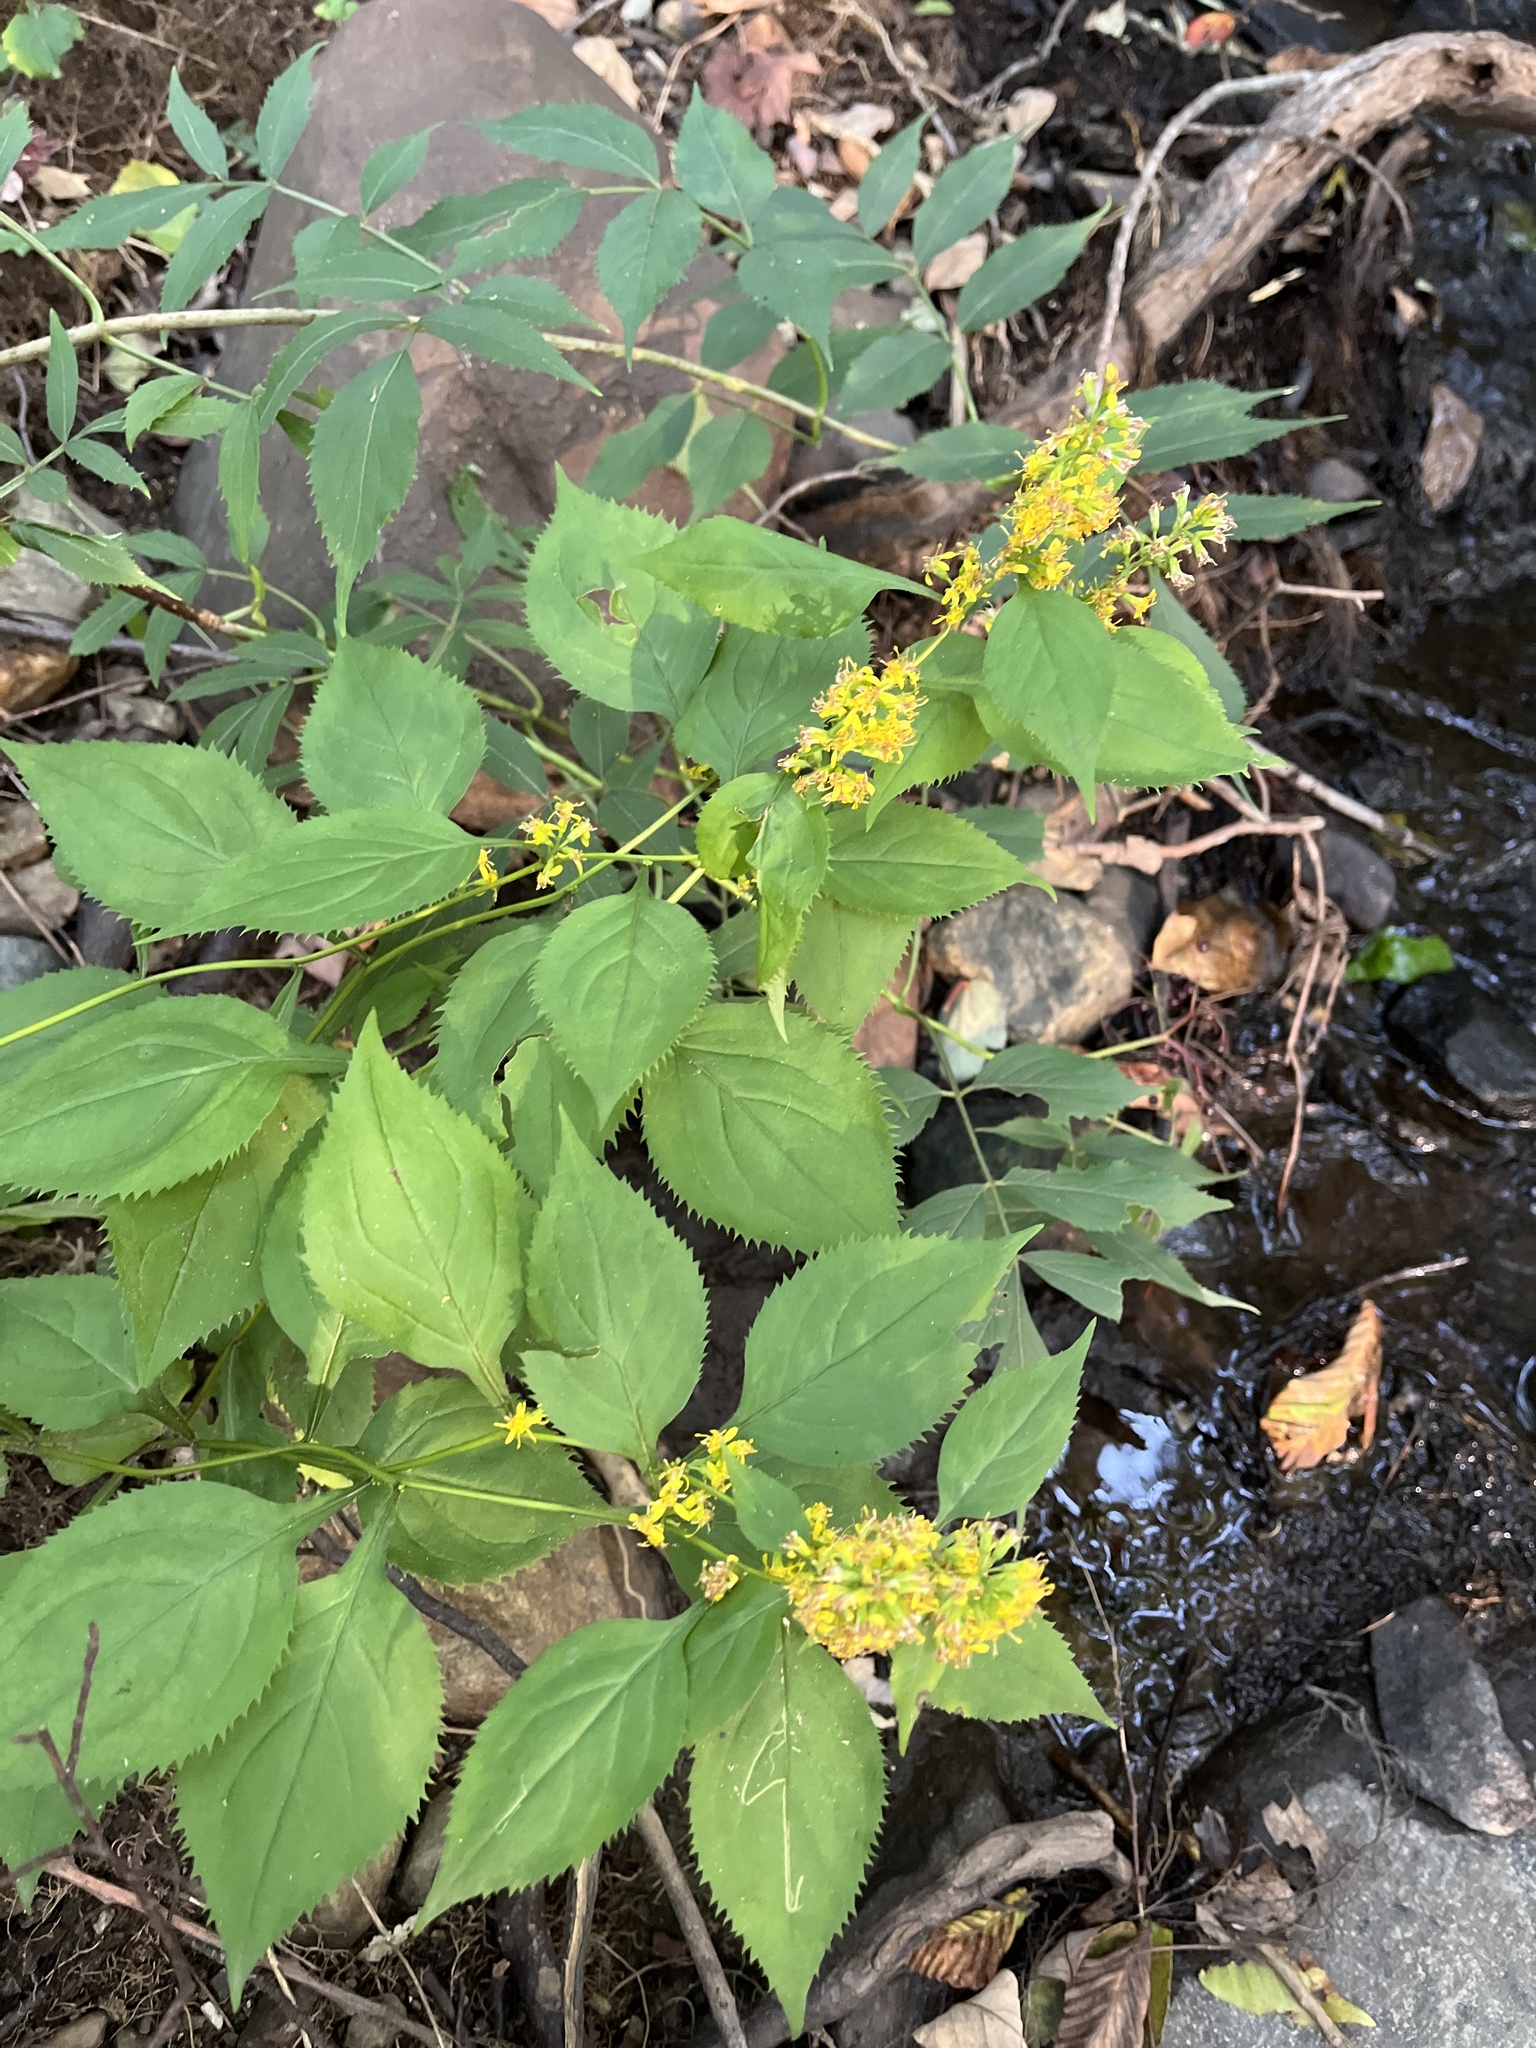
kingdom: Plantae
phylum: Tracheophyta
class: Magnoliopsida
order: Asterales
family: Asteraceae
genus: Solidago
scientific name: Solidago flexicaulis
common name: Zig-zag goldenrod
